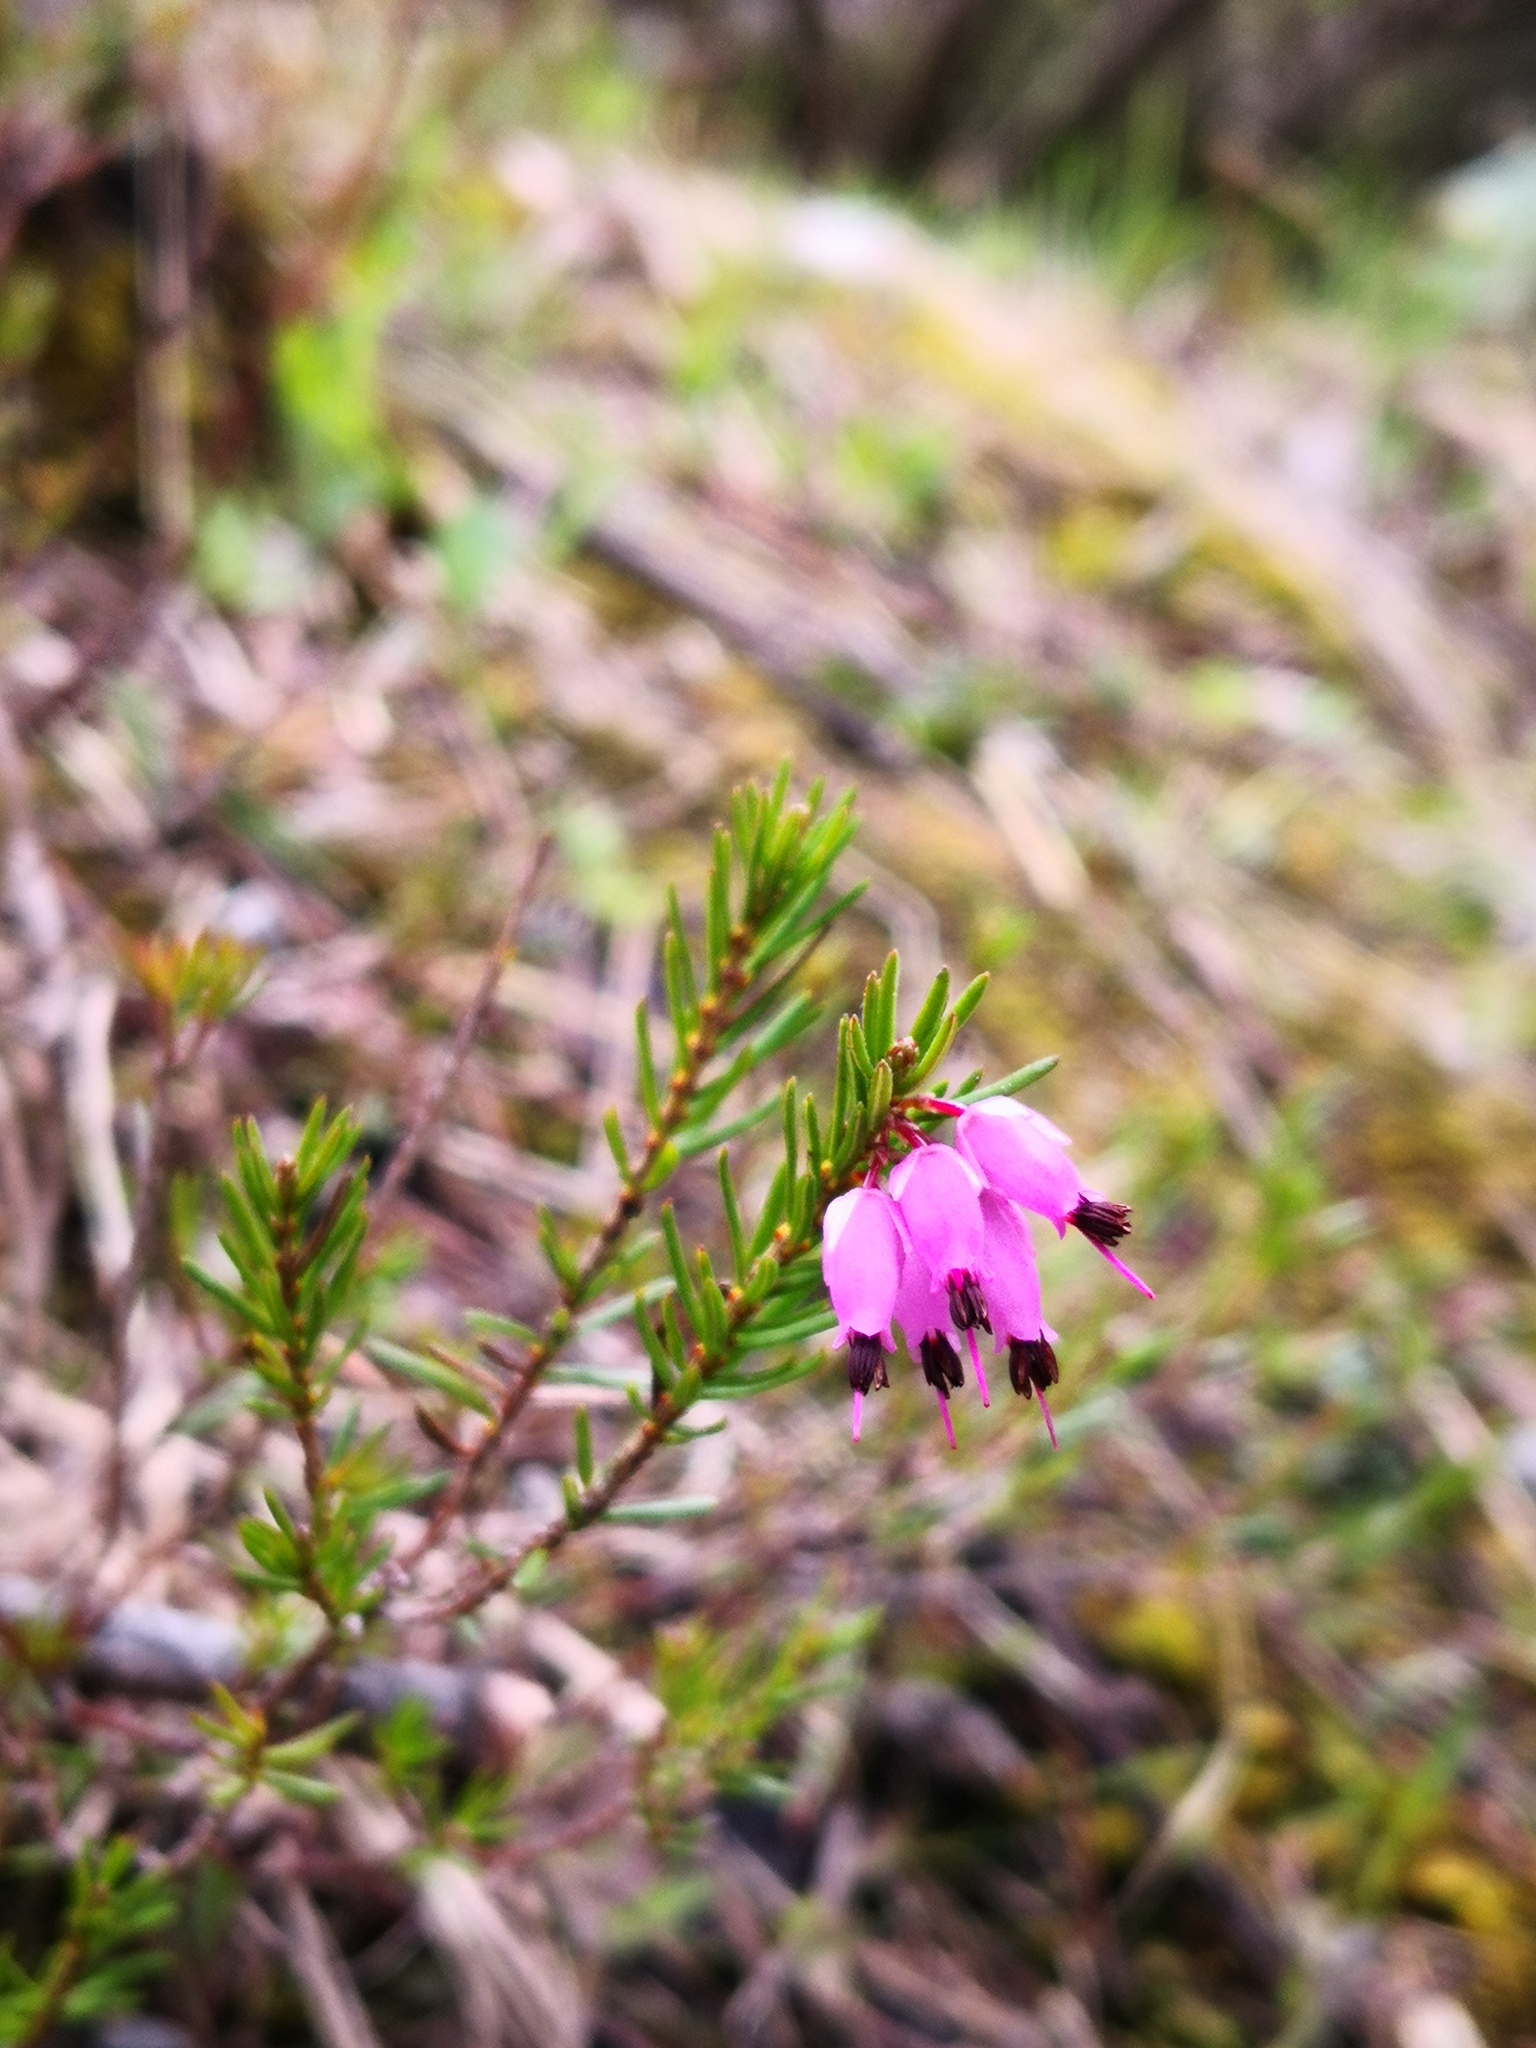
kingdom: Plantae
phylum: Tracheophyta
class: Magnoliopsida
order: Ericales
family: Ericaceae
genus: Erica
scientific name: Erica carnea
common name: Winter heath
